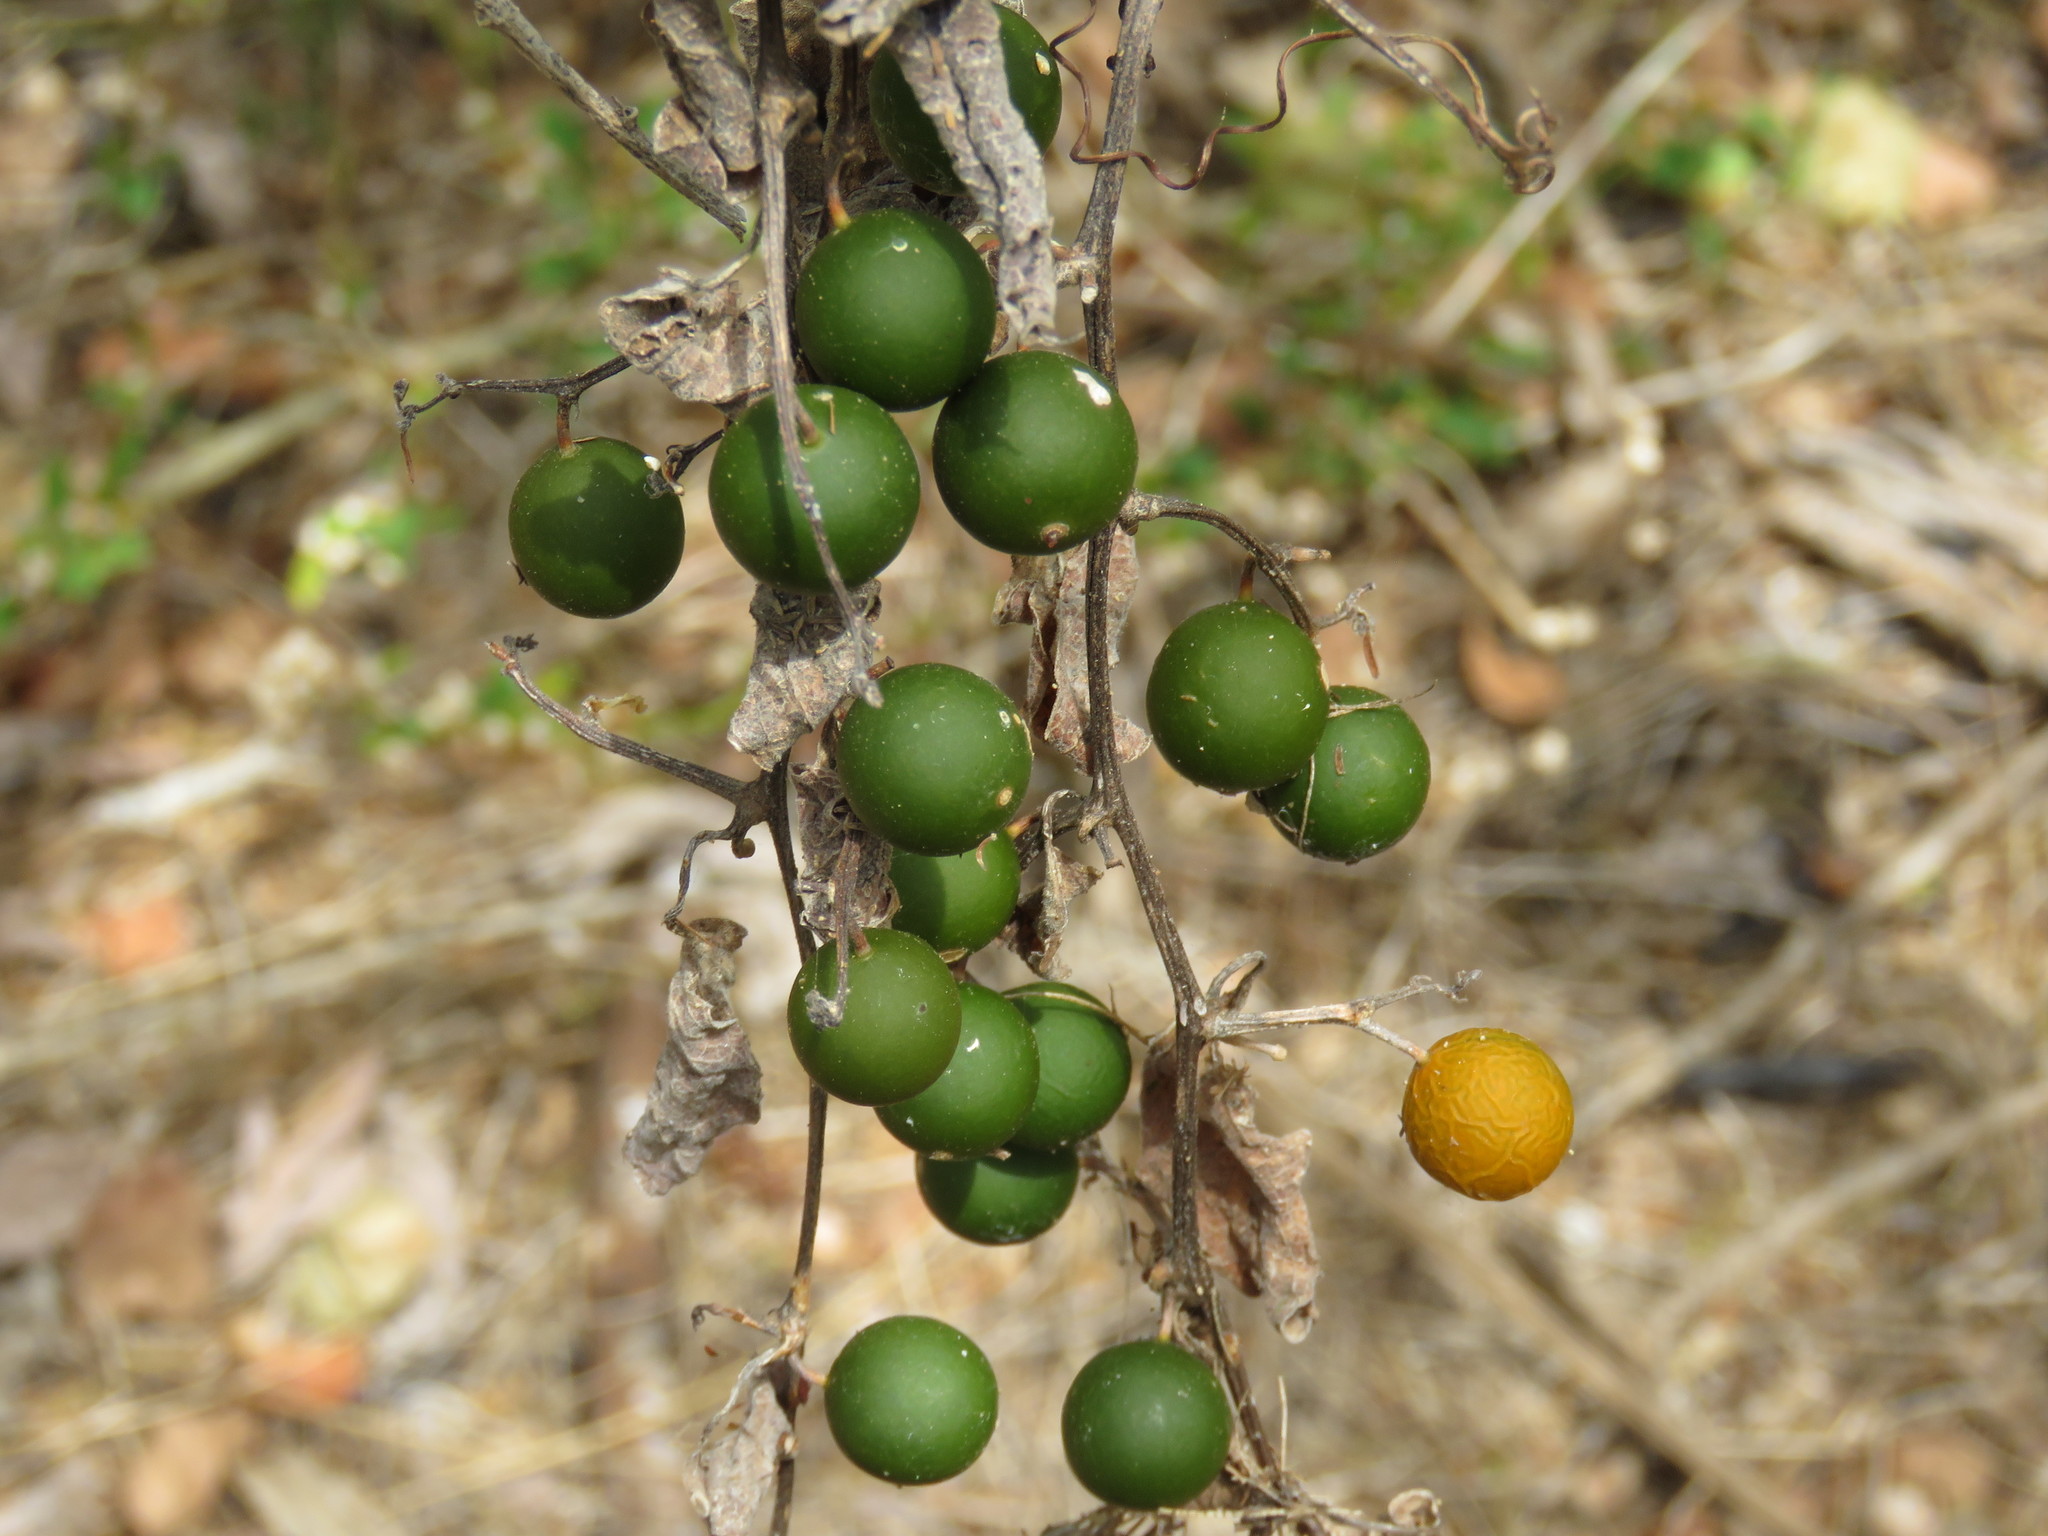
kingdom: Plantae
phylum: Tracheophyta
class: Magnoliopsida
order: Cucurbitales
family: Cucurbitaceae
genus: Cayaponia
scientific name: Cayaponia attenuata
